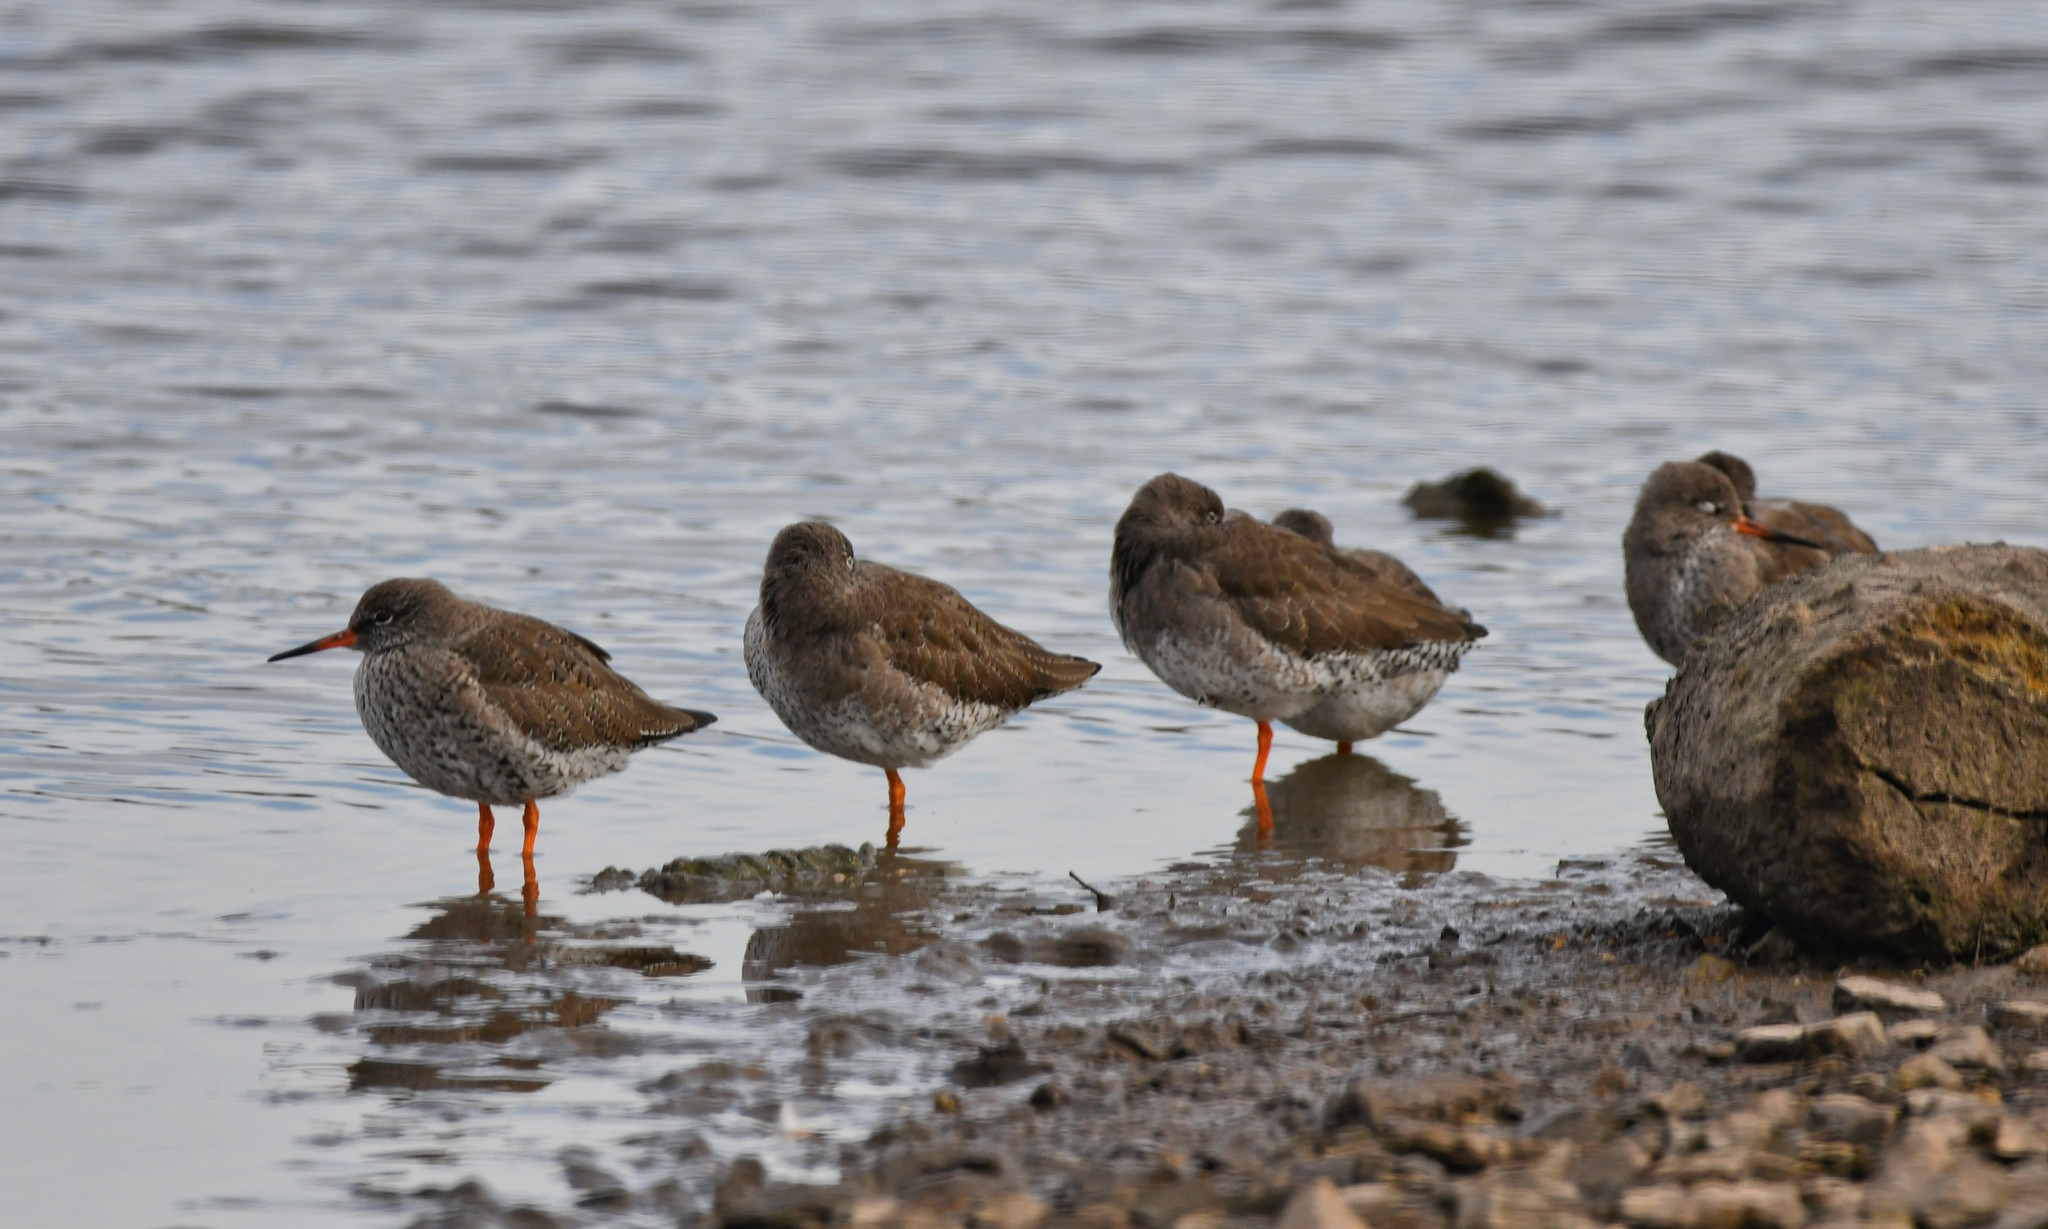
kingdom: Animalia
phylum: Chordata
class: Aves
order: Charadriiformes
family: Scolopacidae
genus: Tringa
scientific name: Tringa totanus
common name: Common redshank
